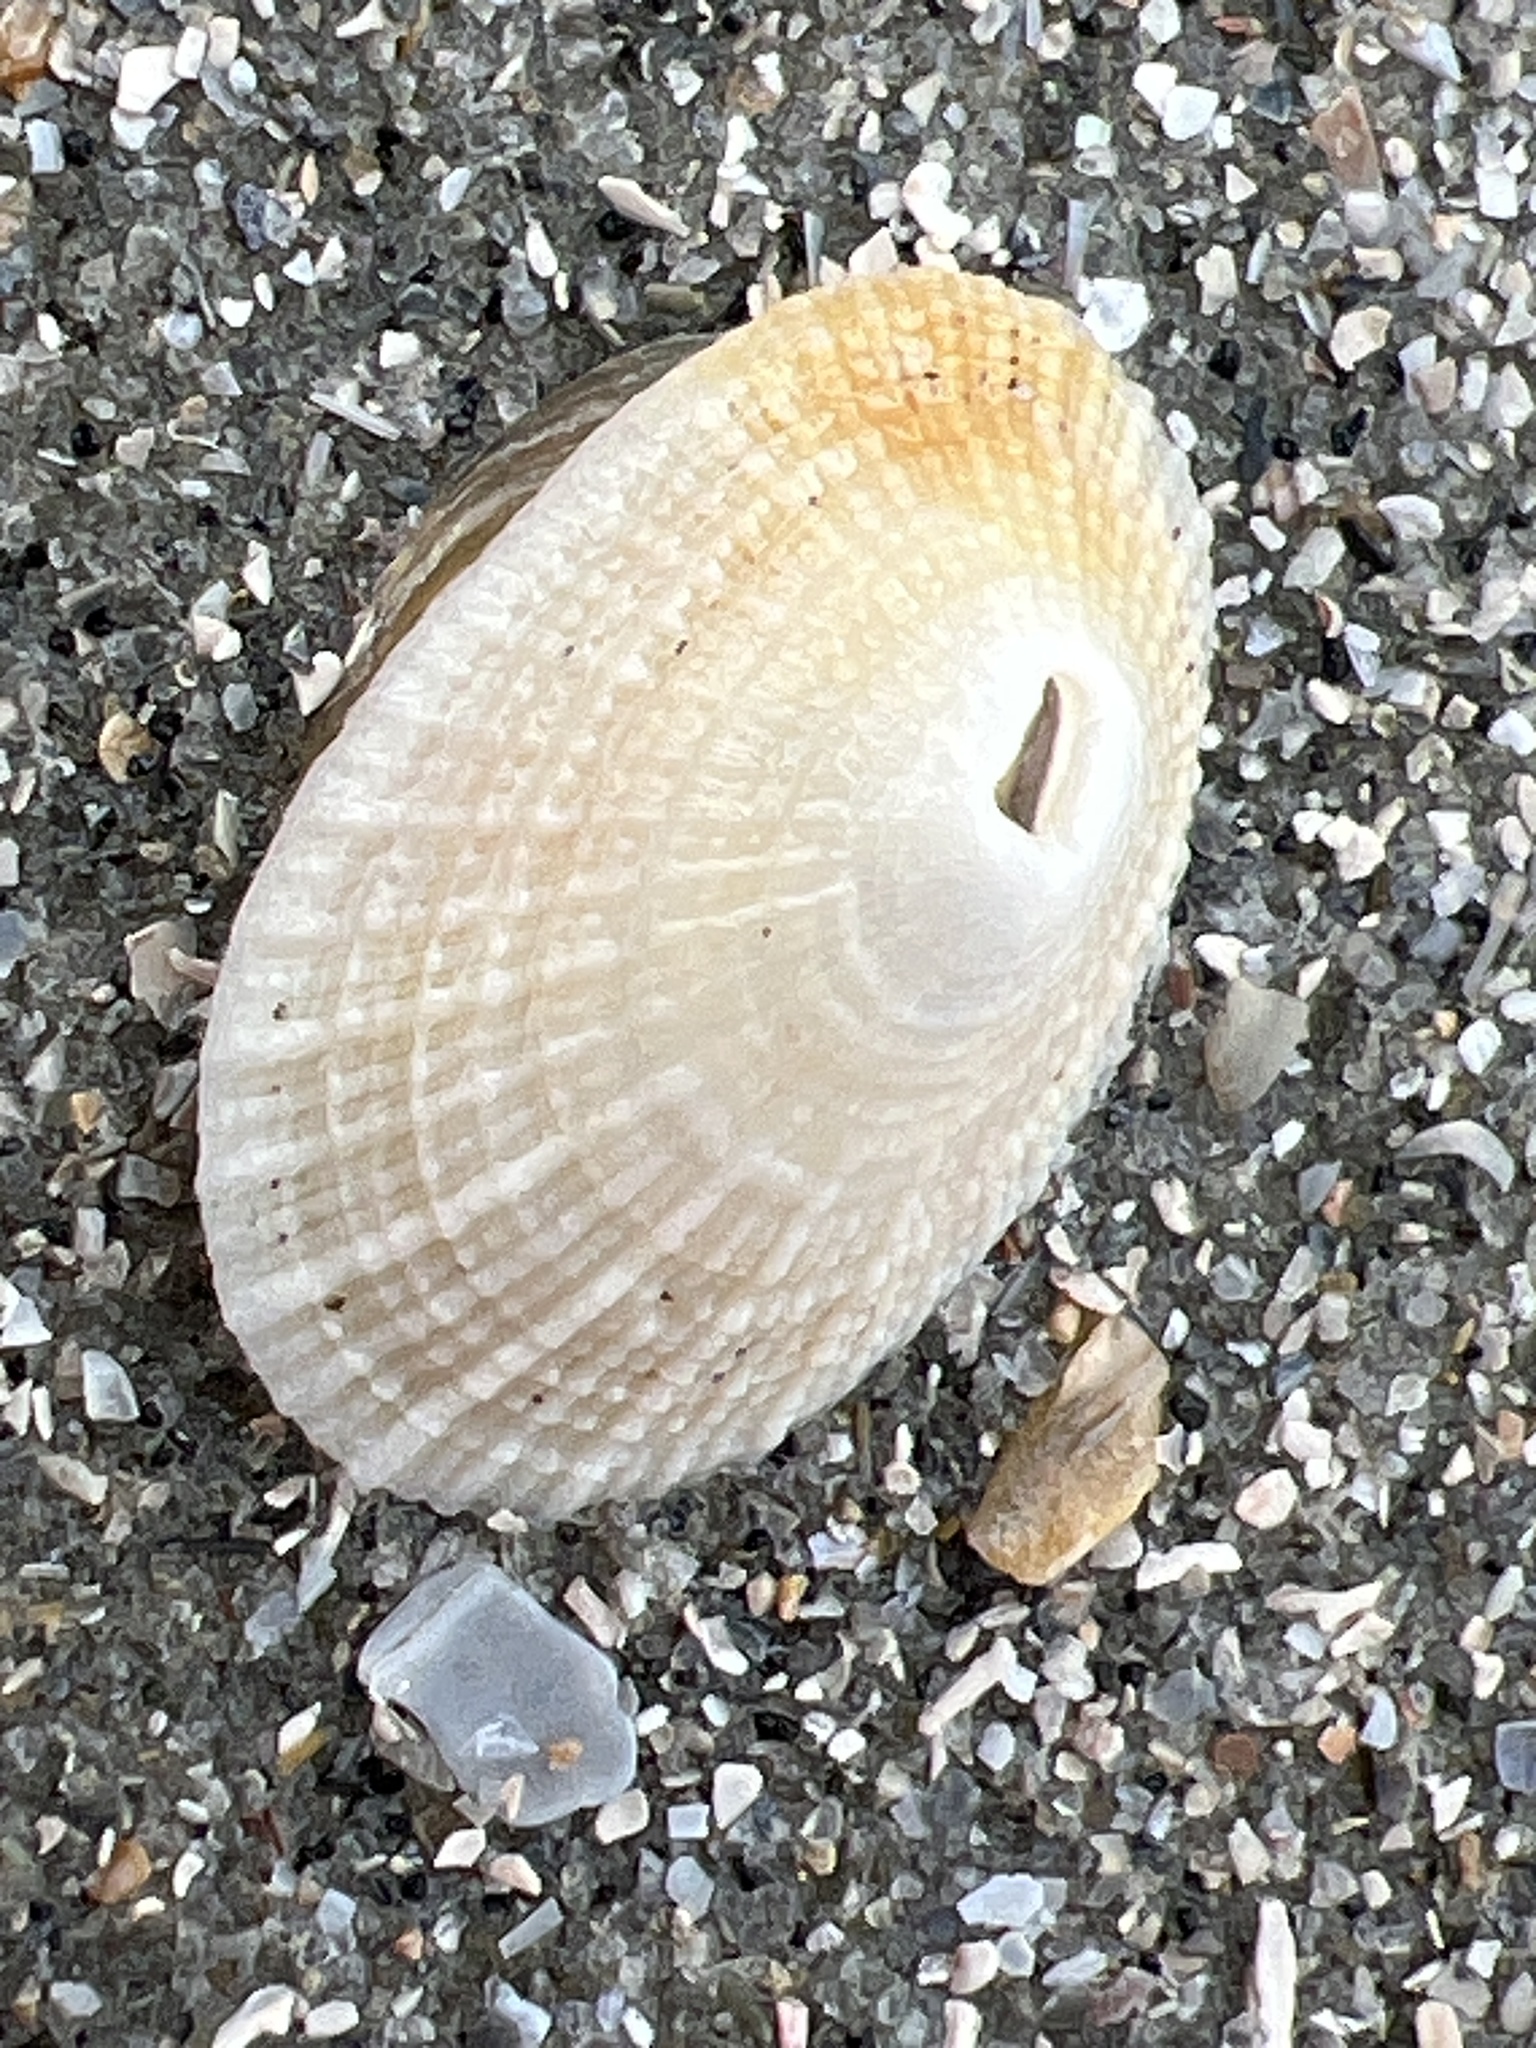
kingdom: Animalia
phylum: Mollusca
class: Gastropoda
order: Lepetellida
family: Fissurellidae
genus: Diodora
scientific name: Diodora cayenensis
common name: Cayenne keyhole limpet
